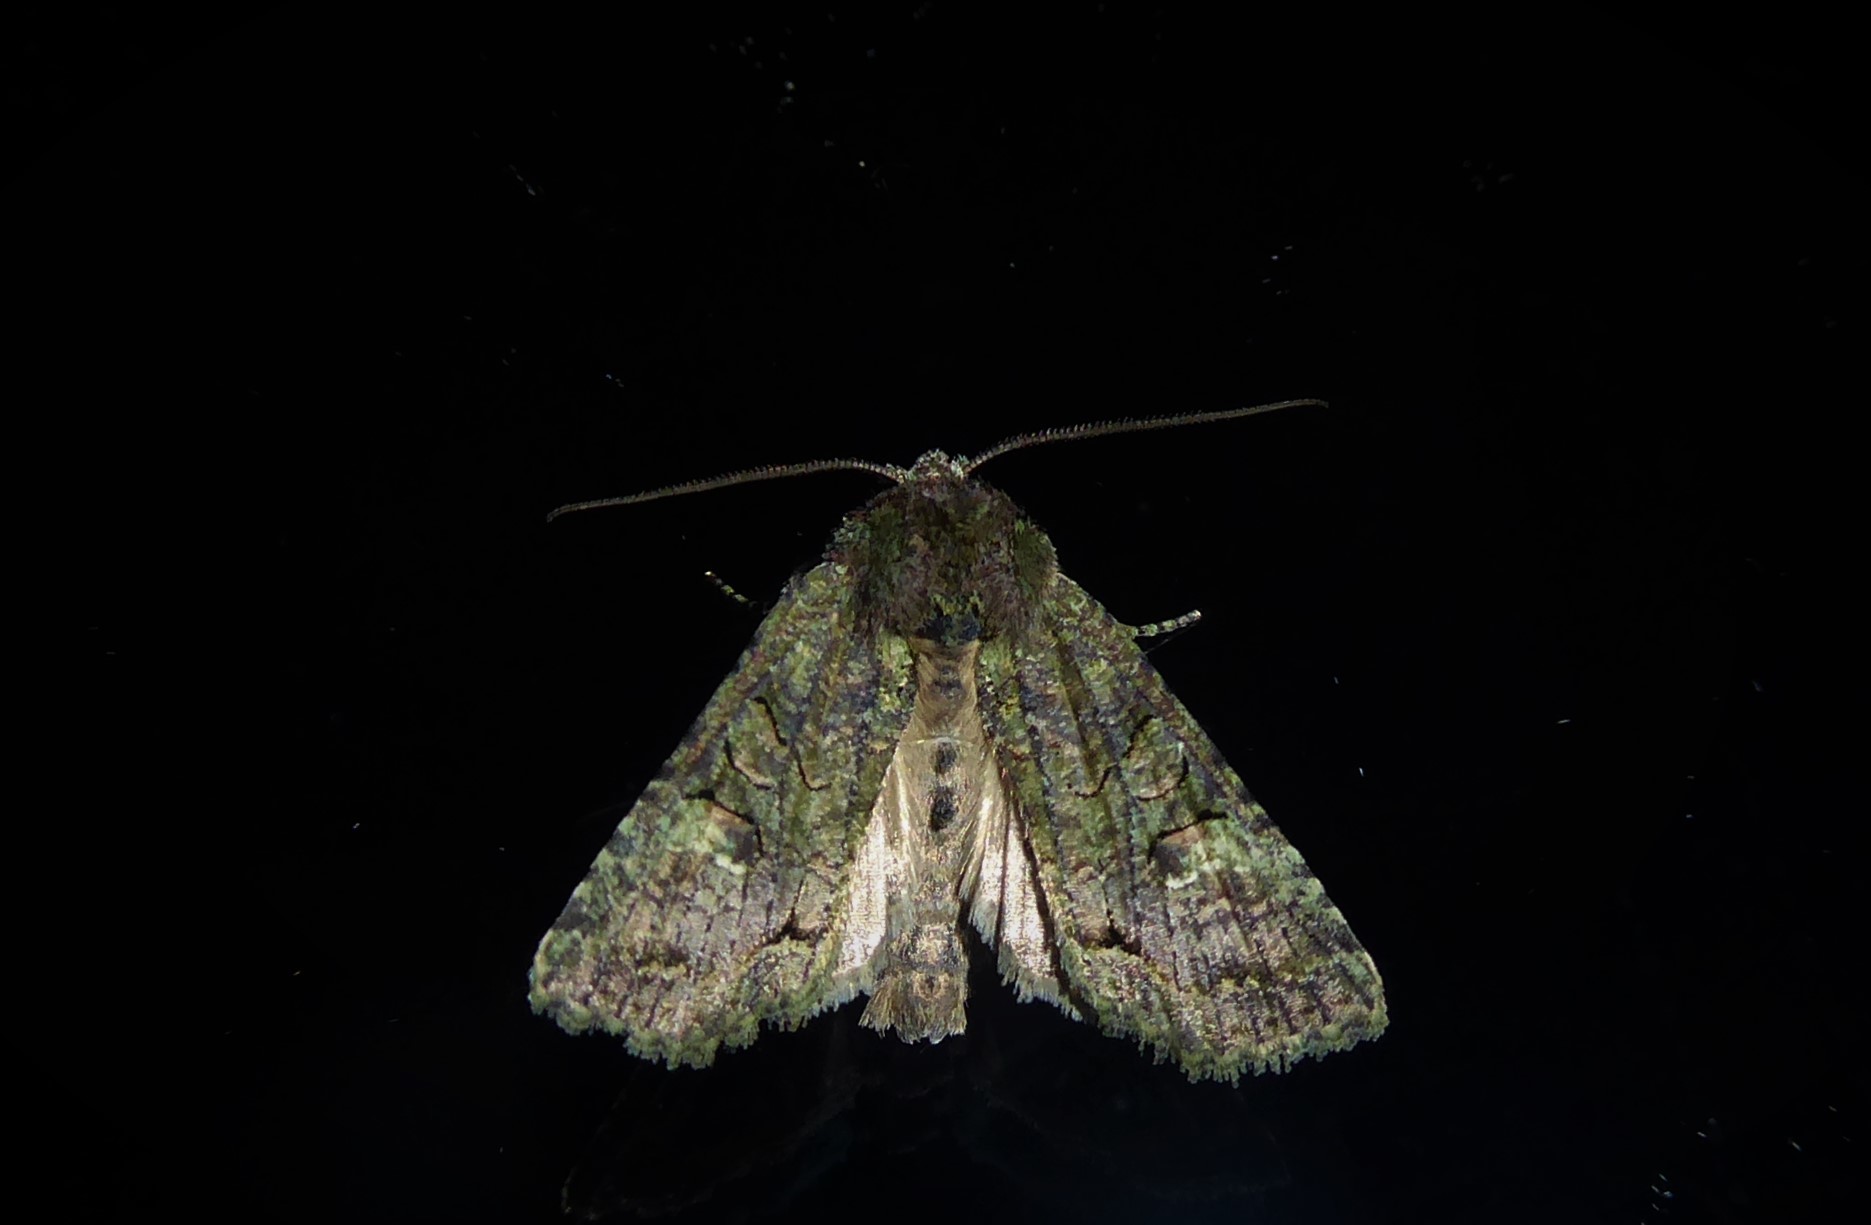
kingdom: Animalia
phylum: Arthropoda
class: Insecta
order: Lepidoptera
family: Noctuidae
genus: Meterana
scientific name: Meterana levis
